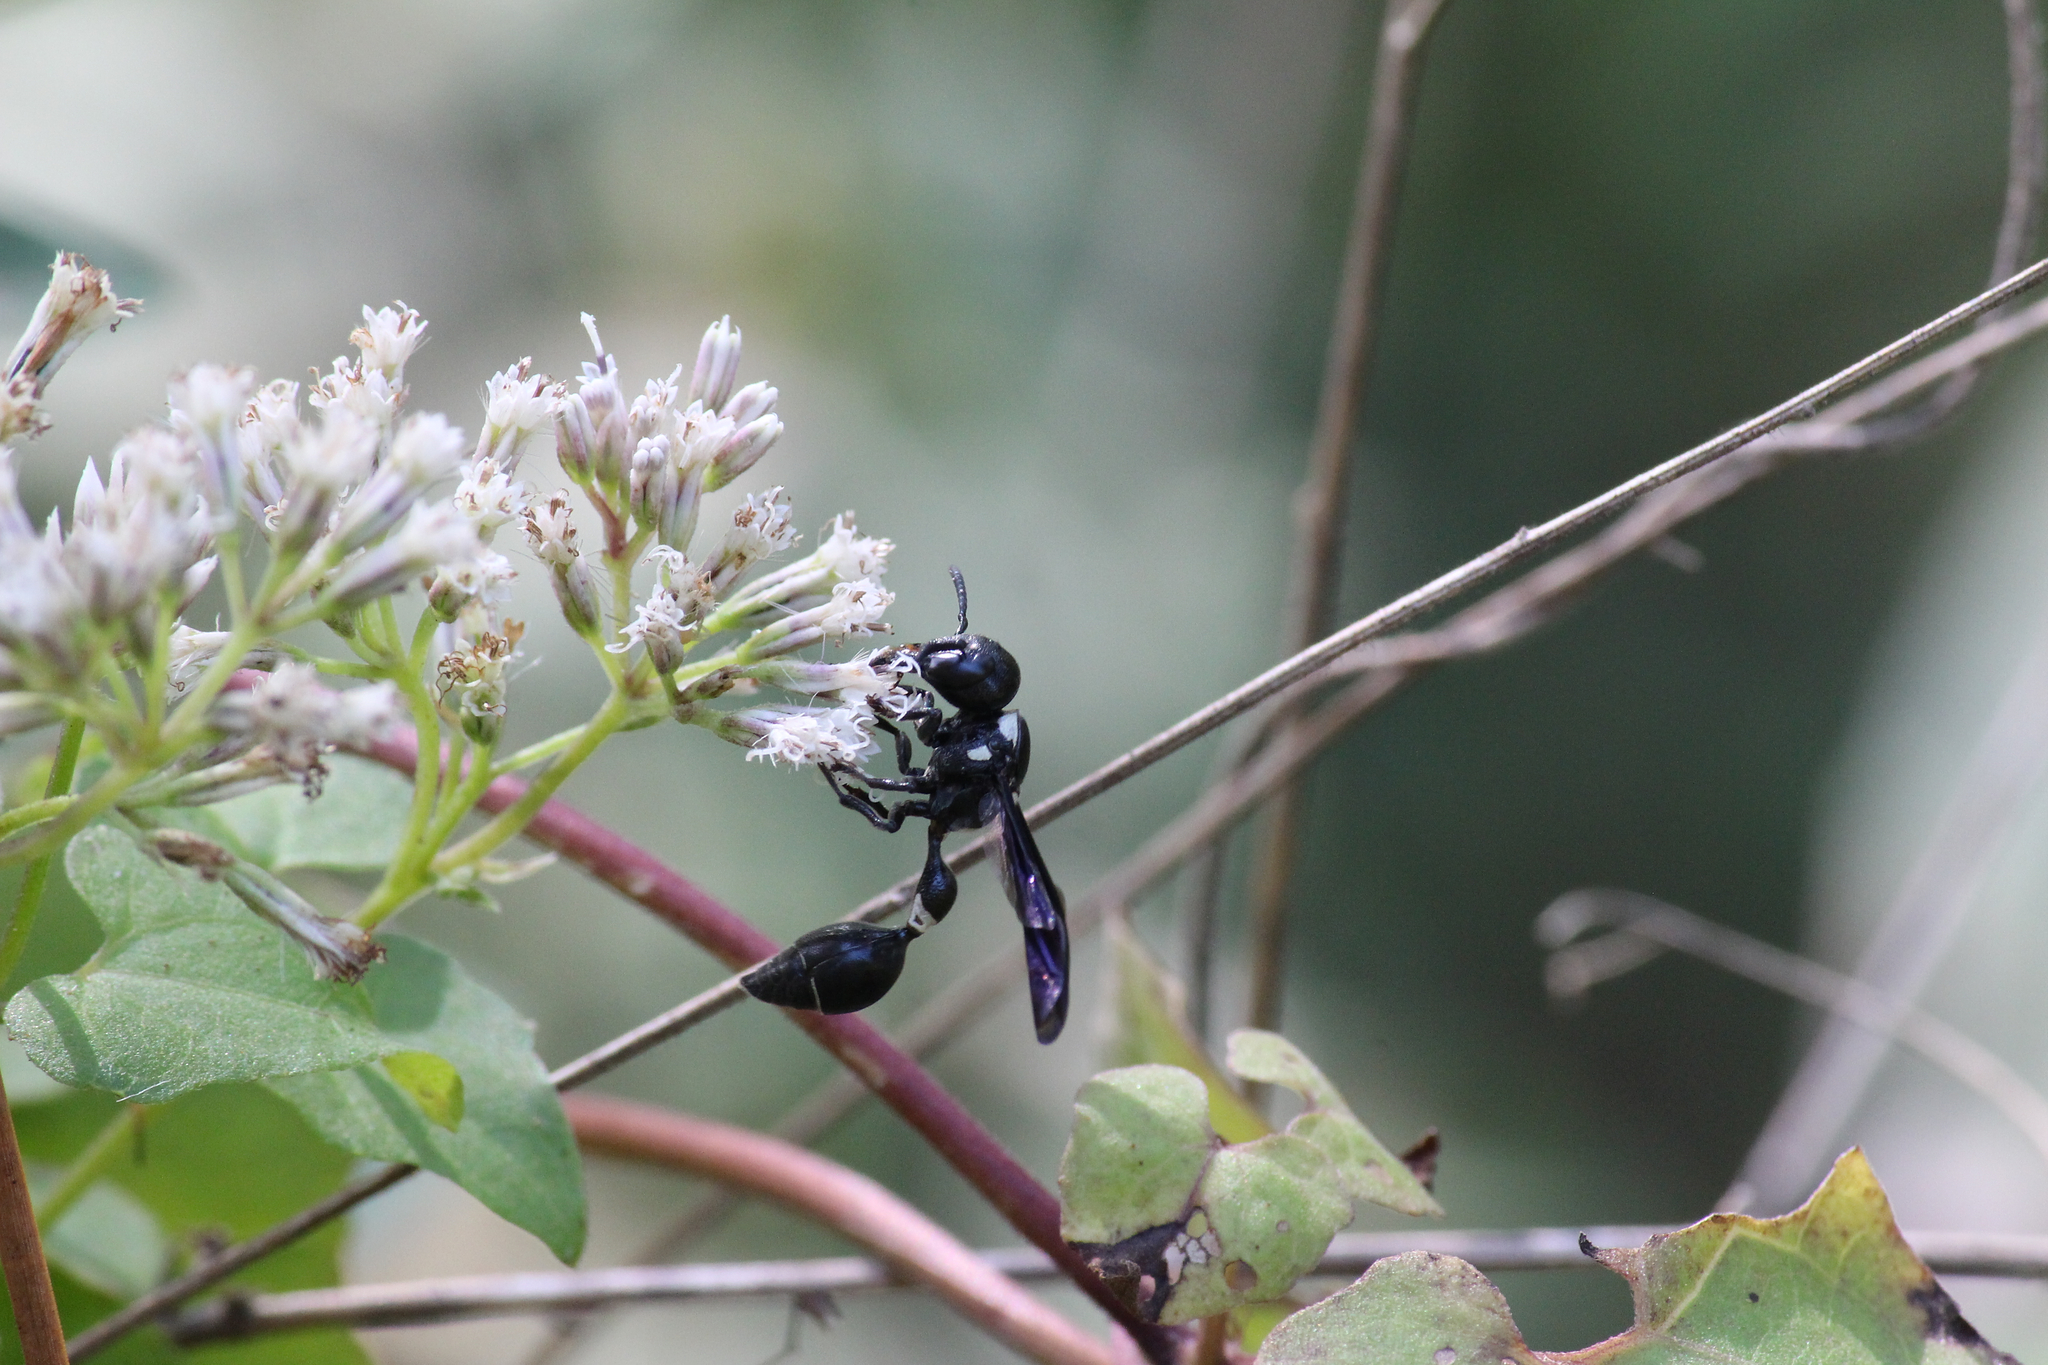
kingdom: Animalia
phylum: Arthropoda
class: Insecta
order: Hymenoptera
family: Eumenidae
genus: Zethus
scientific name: Zethus spinipes
